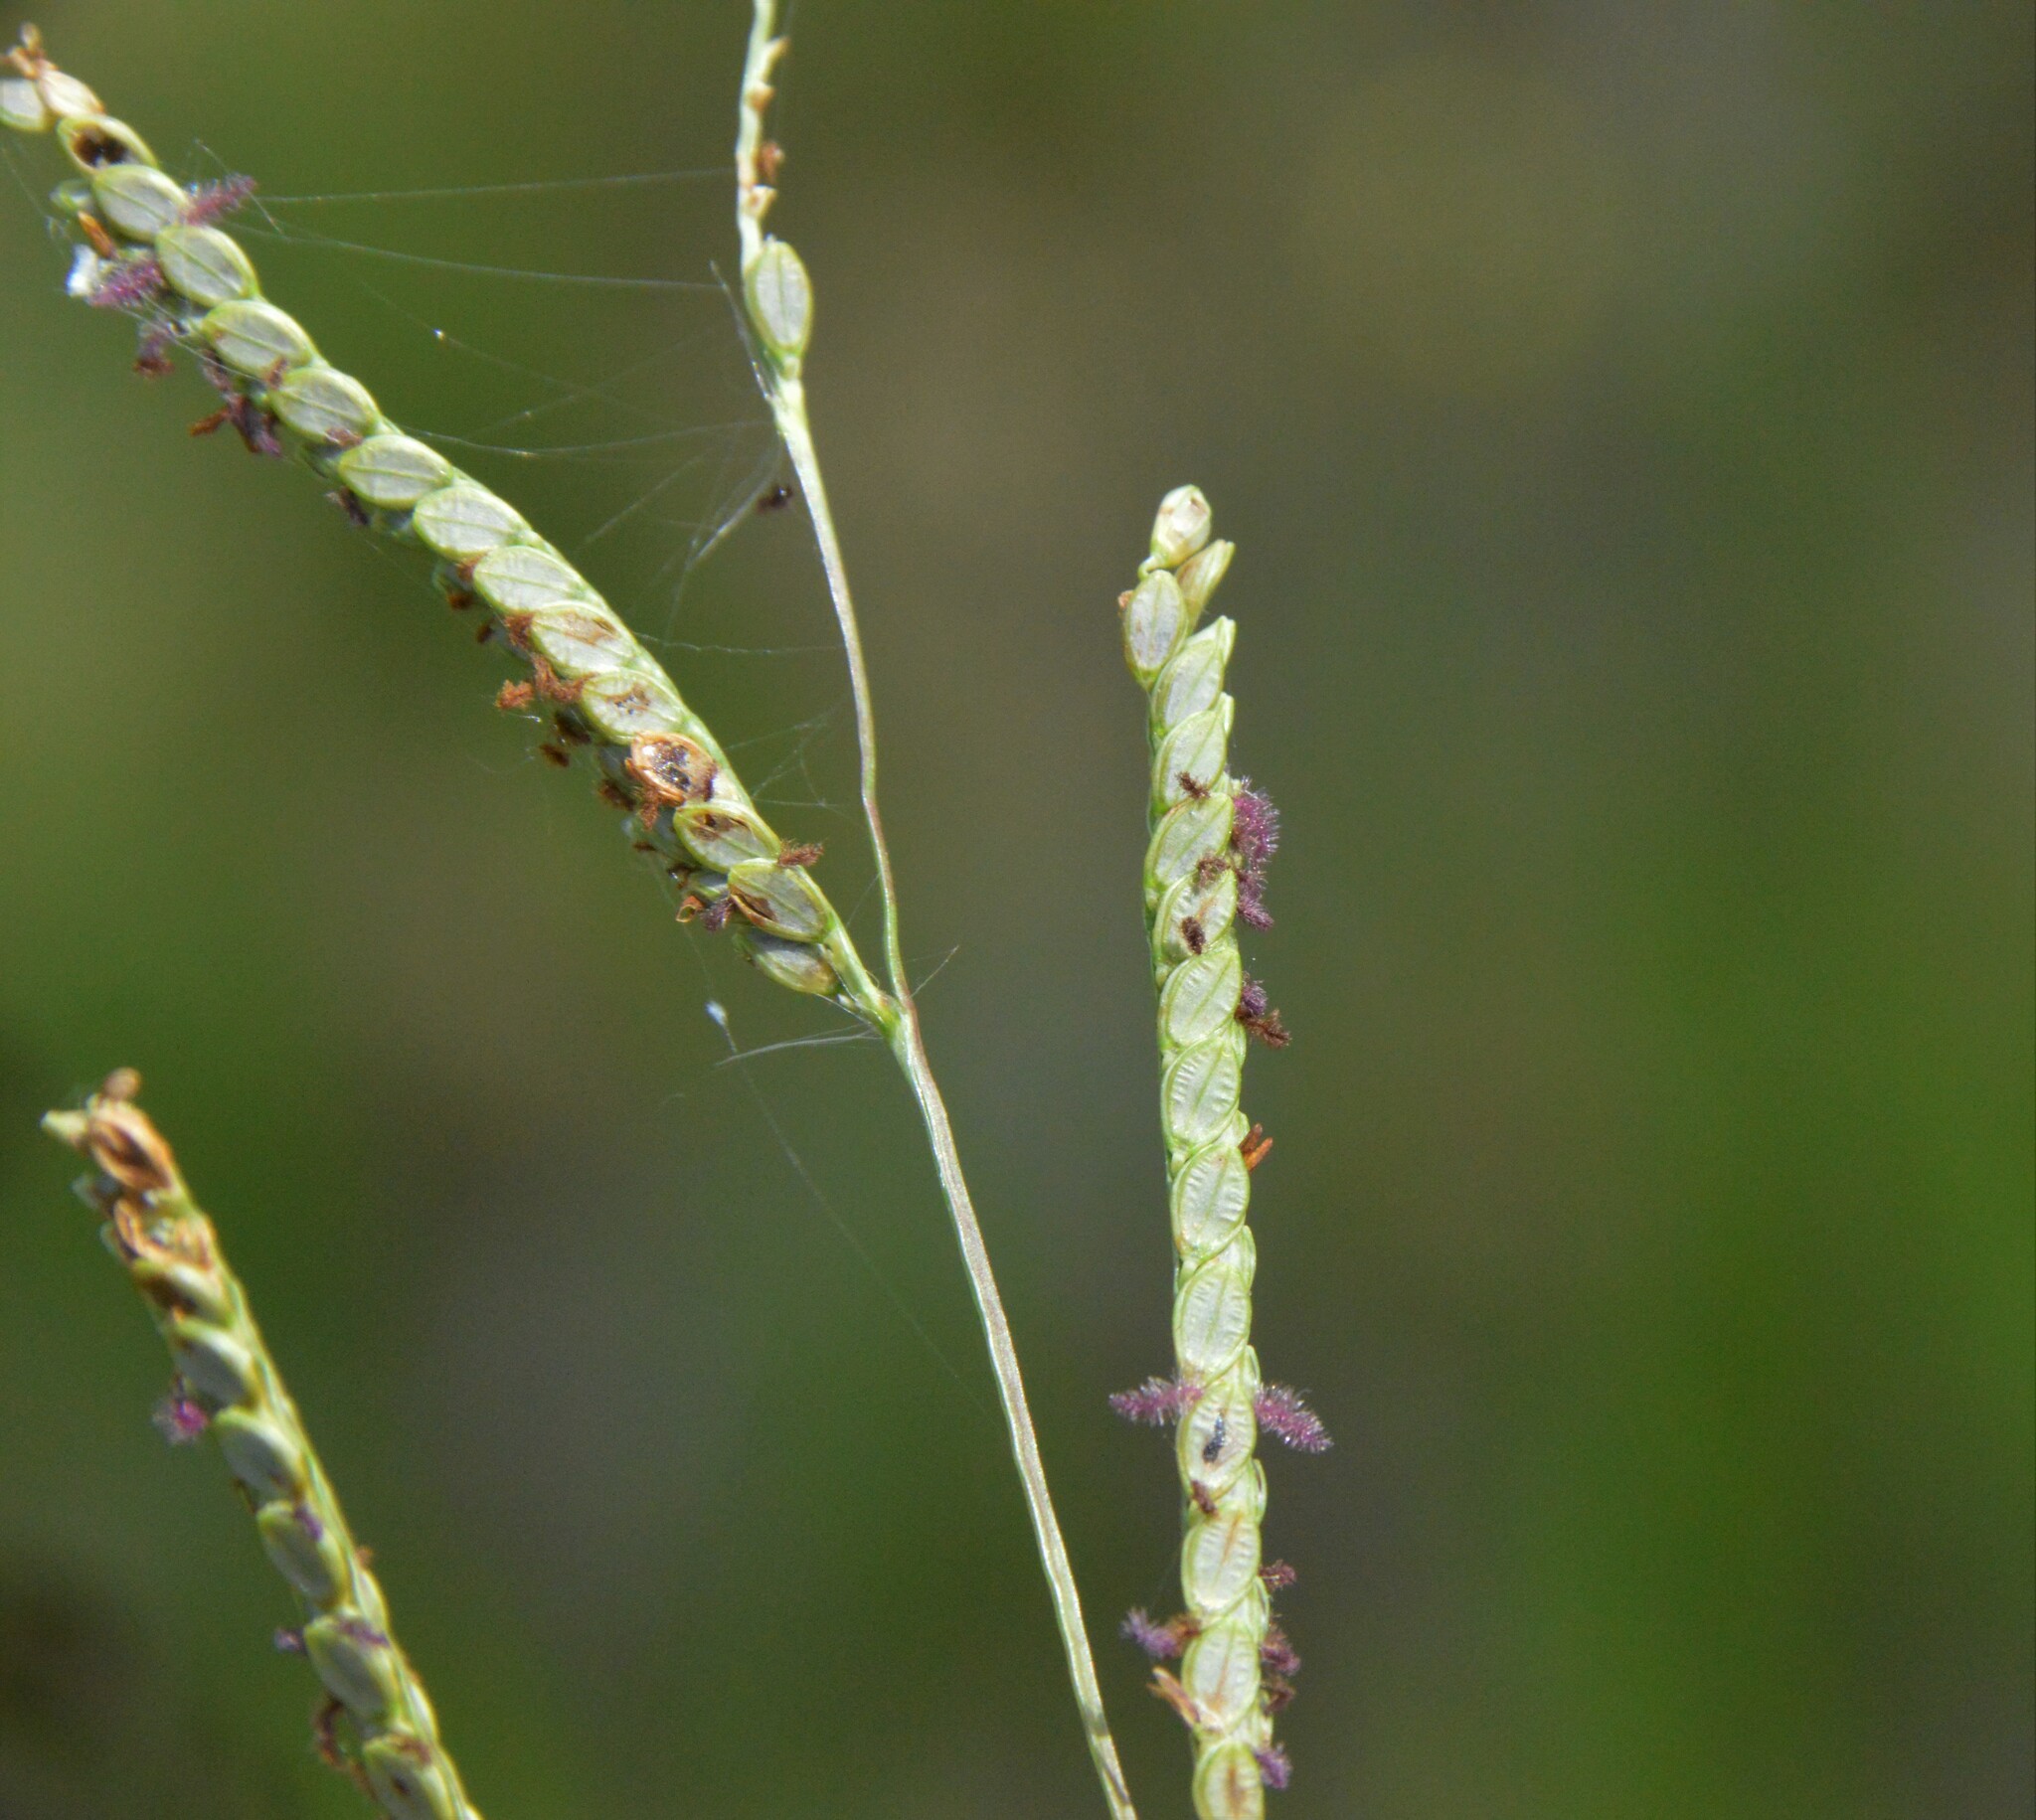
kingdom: Plantae
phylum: Tracheophyta
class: Liliopsida
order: Poales
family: Poaceae
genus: Paspalum
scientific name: Paspalum plicatulum
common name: Top paspalum
